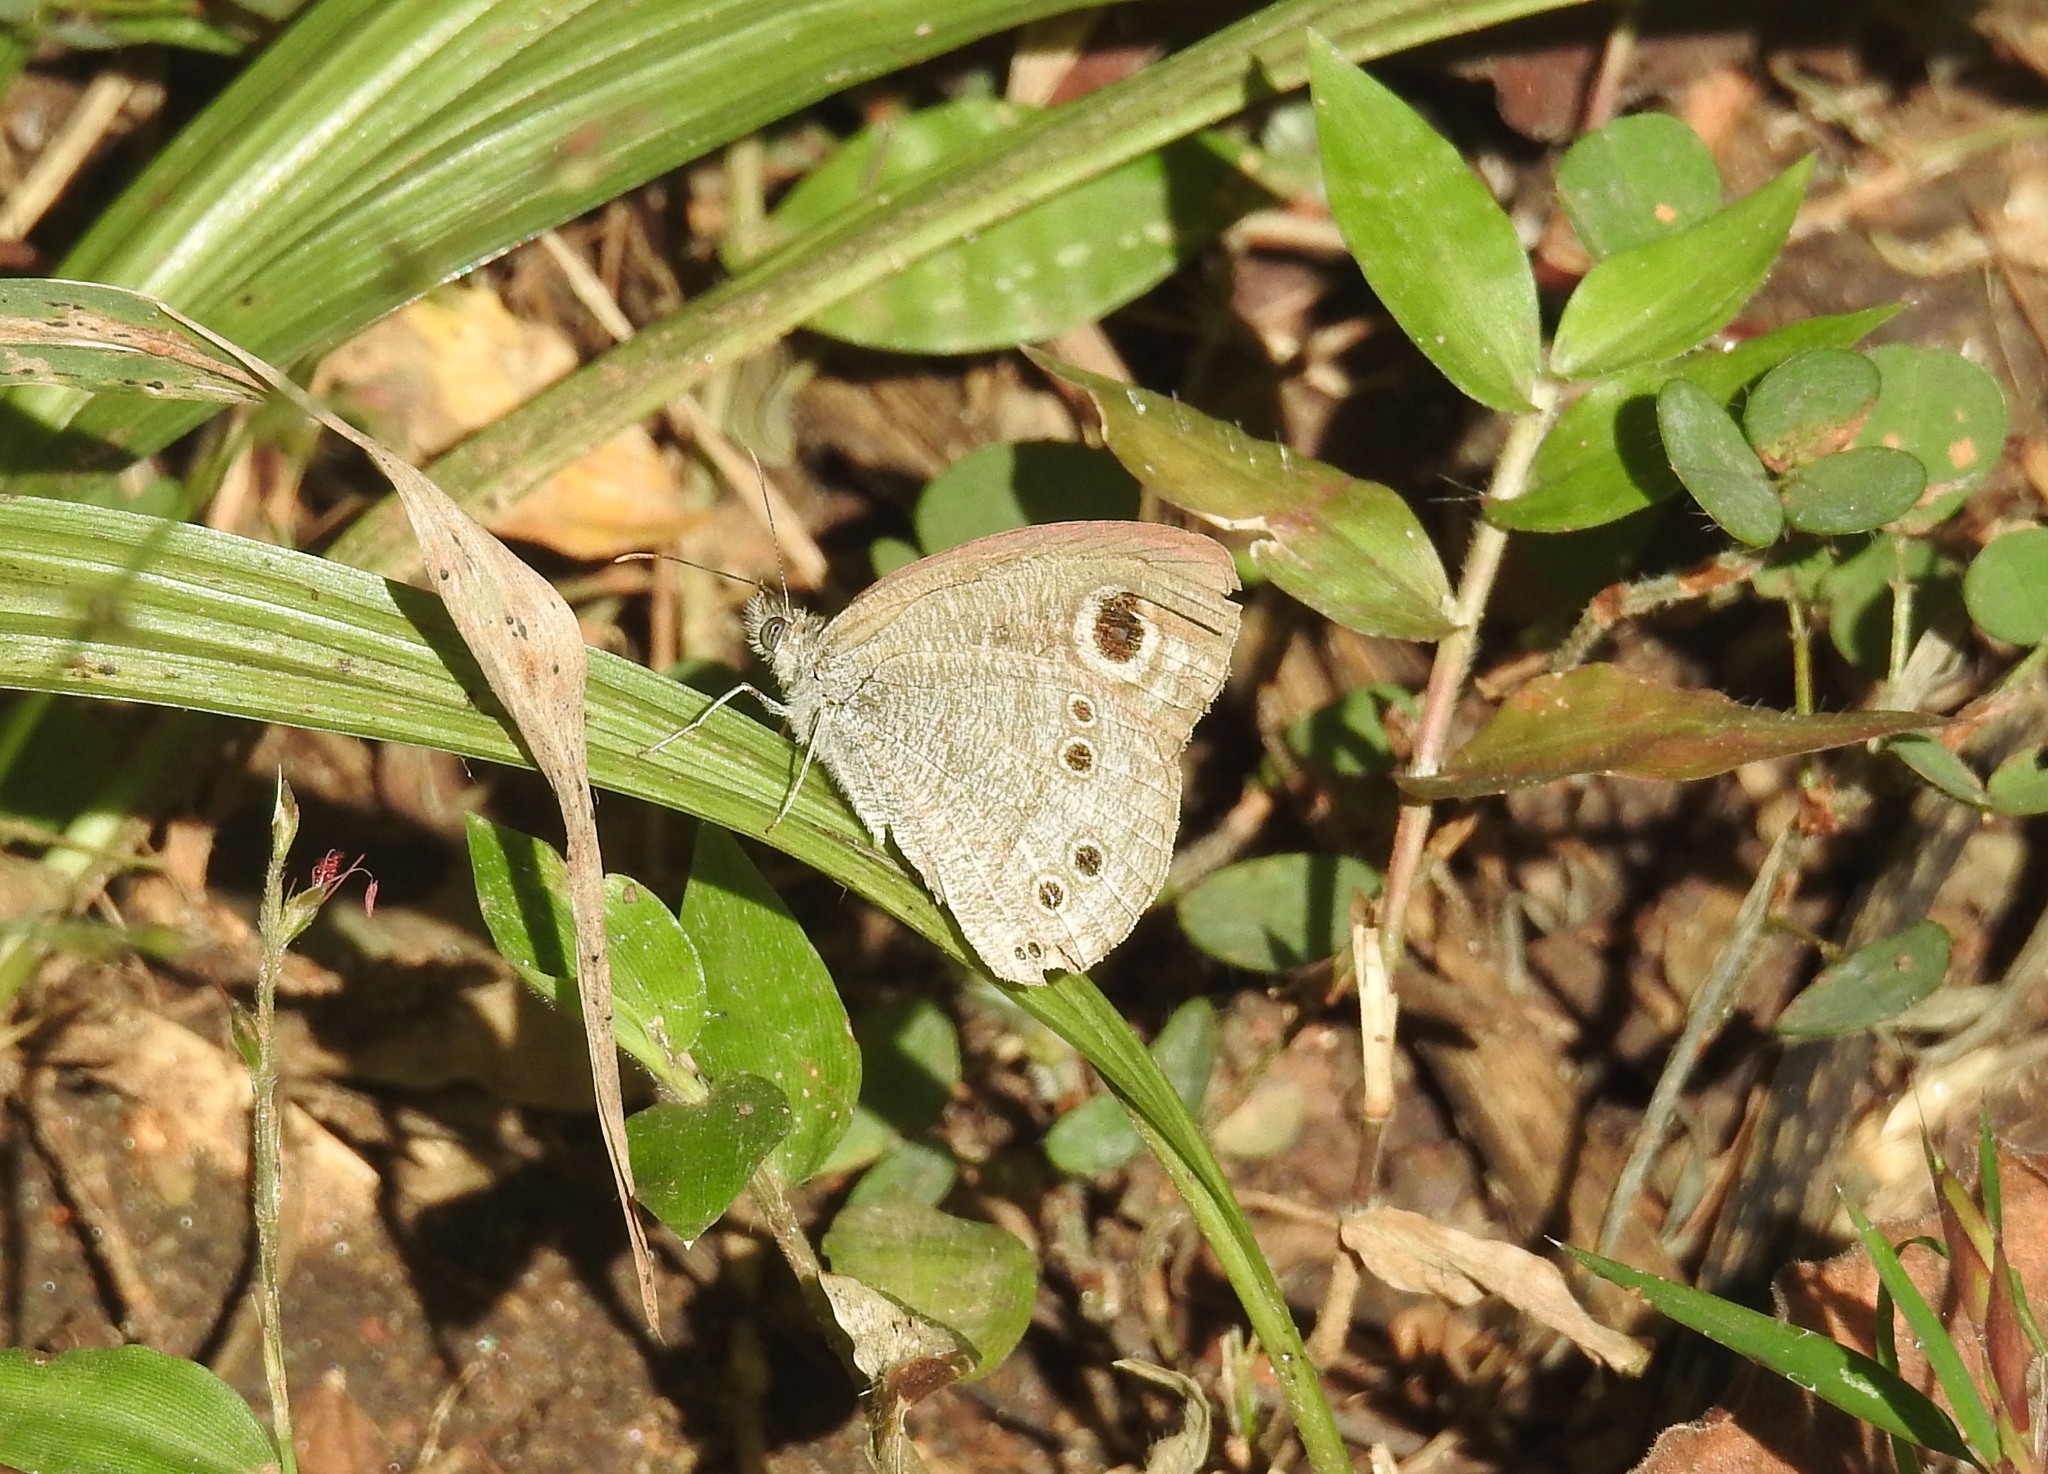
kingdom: Animalia
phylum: Arthropoda
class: Insecta
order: Lepidoptera
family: Nymphalidae
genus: Ypthima
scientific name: Ypthima baldus
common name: Common five-ring
